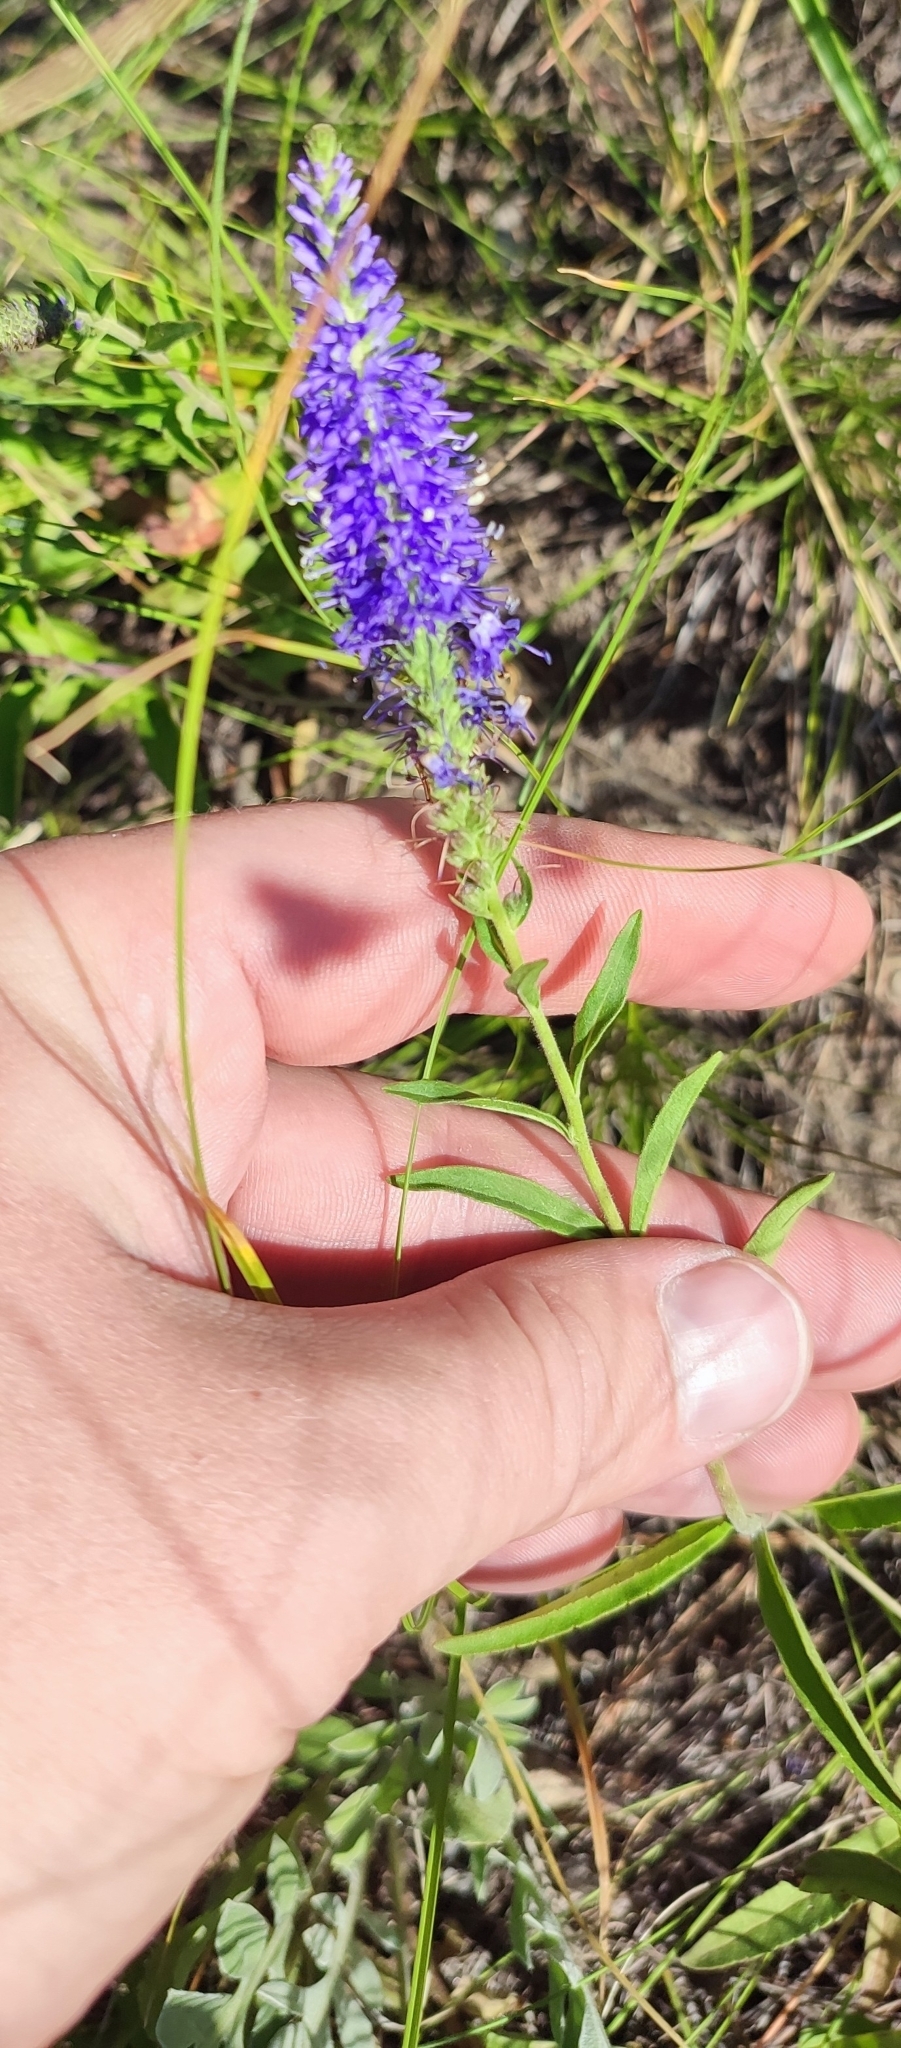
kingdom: Plantae
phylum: Tracheophyta
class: Magnoliopsida
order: Lamiales
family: Plantaginaceae
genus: Veronica
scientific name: Veronica spicata
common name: Spiked speedwell
